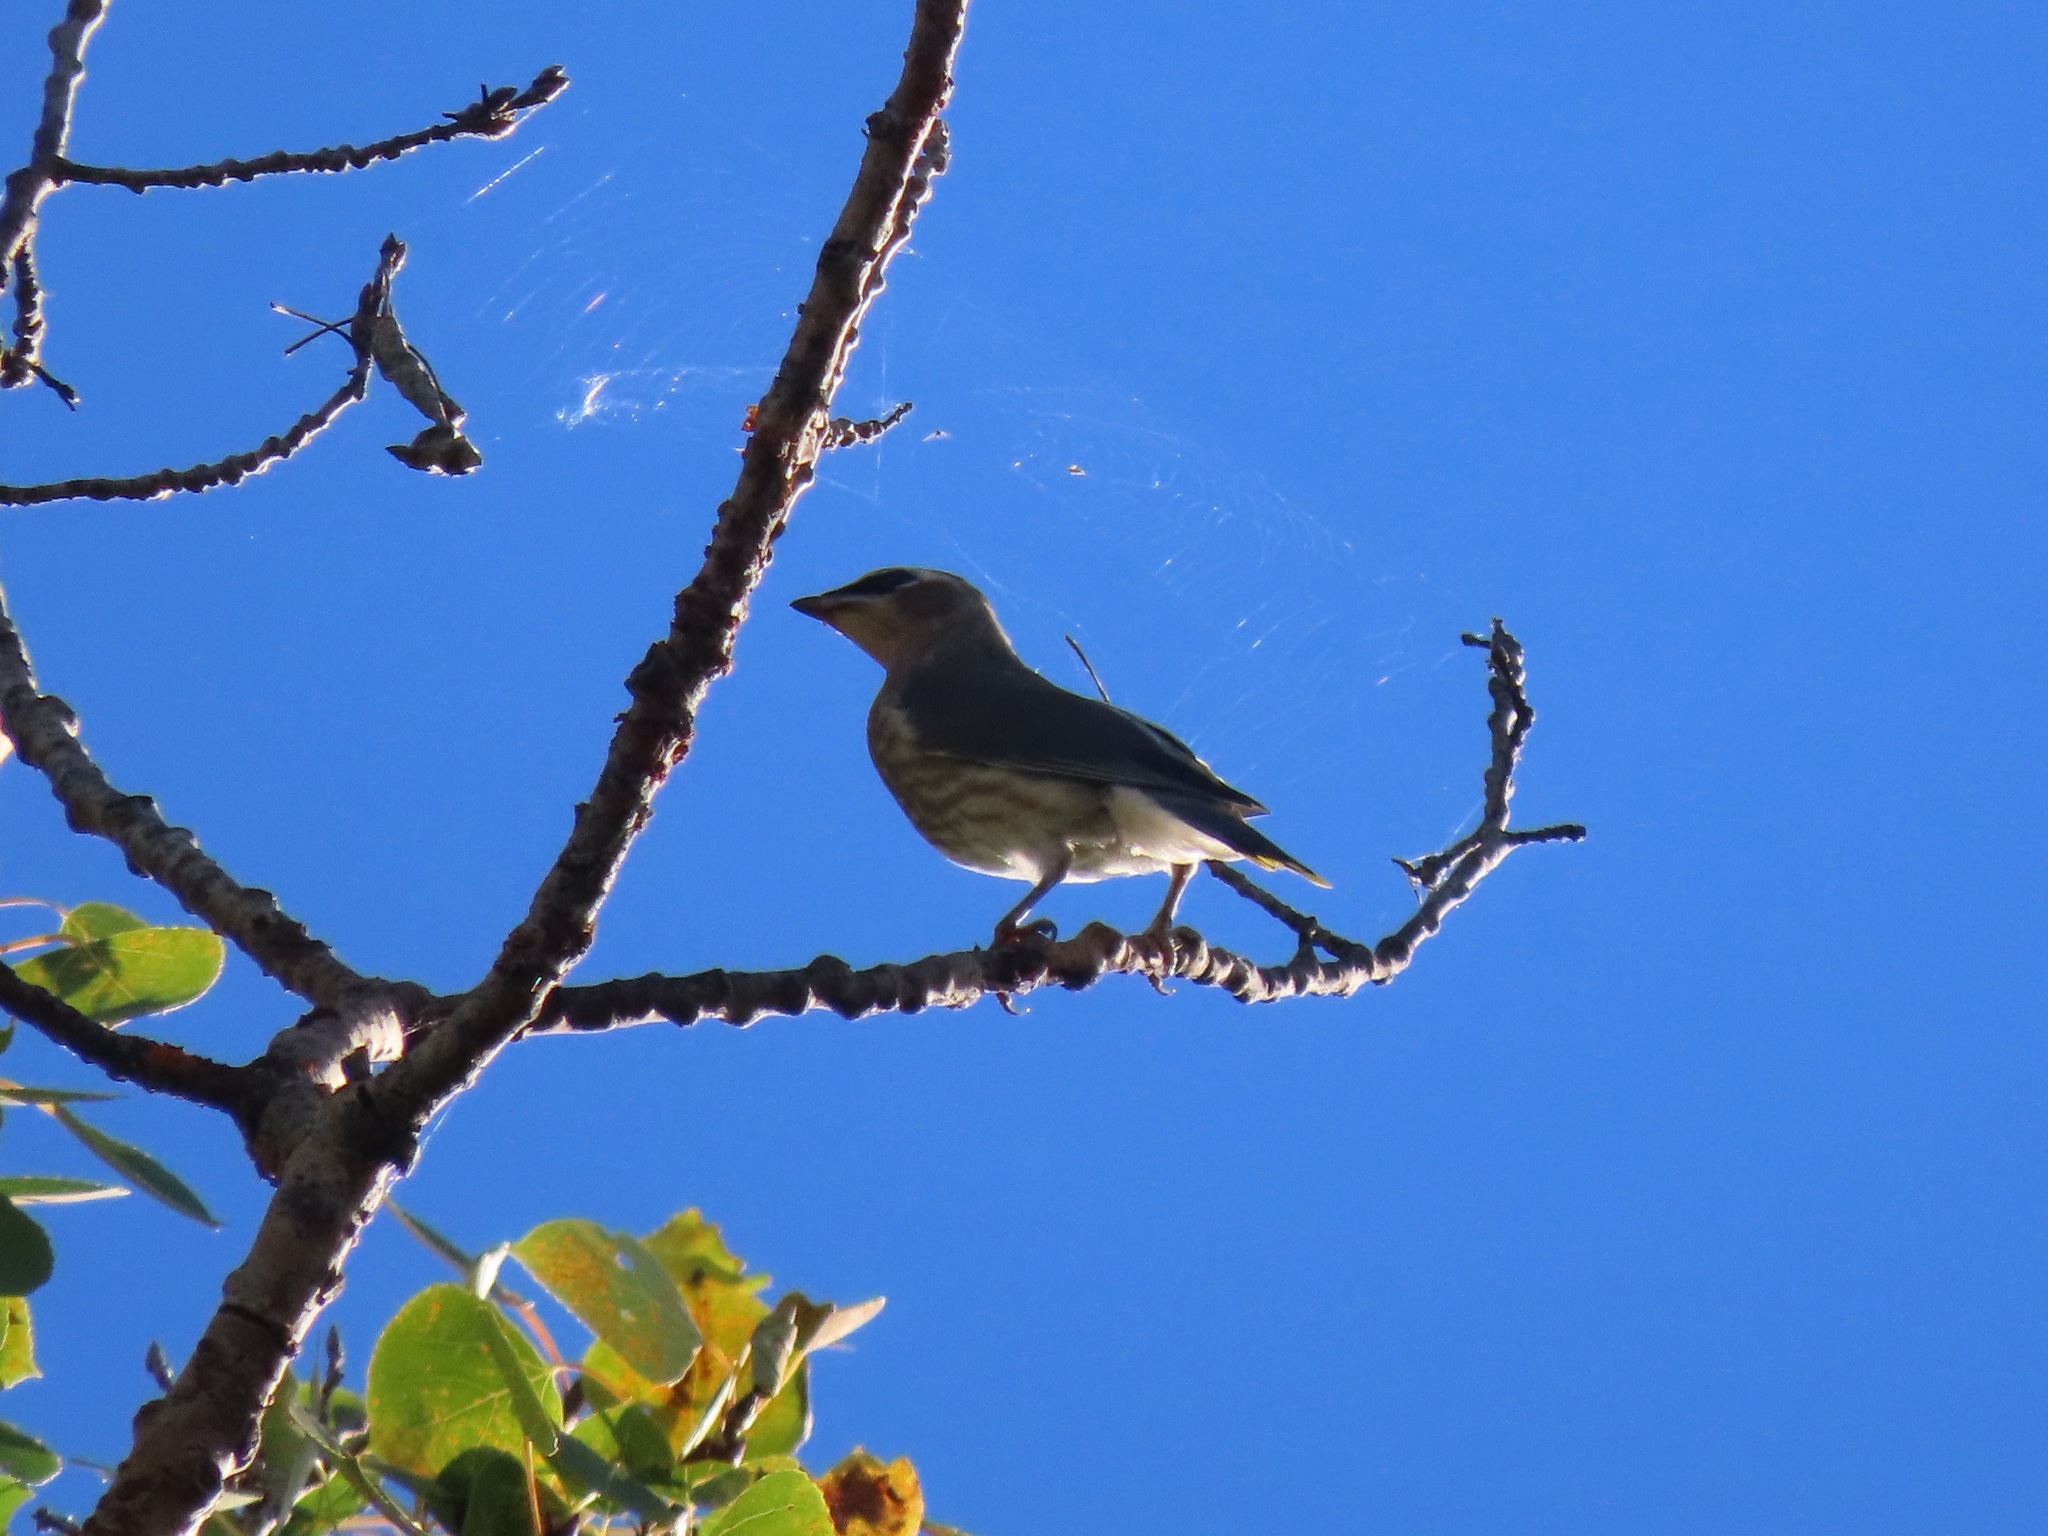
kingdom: Animalia
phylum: Chordata
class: Aves
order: Passeriformes
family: Bombycillidae
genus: Bombycilla
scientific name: Bombycilla cedrorum
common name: Cedar waxwing
